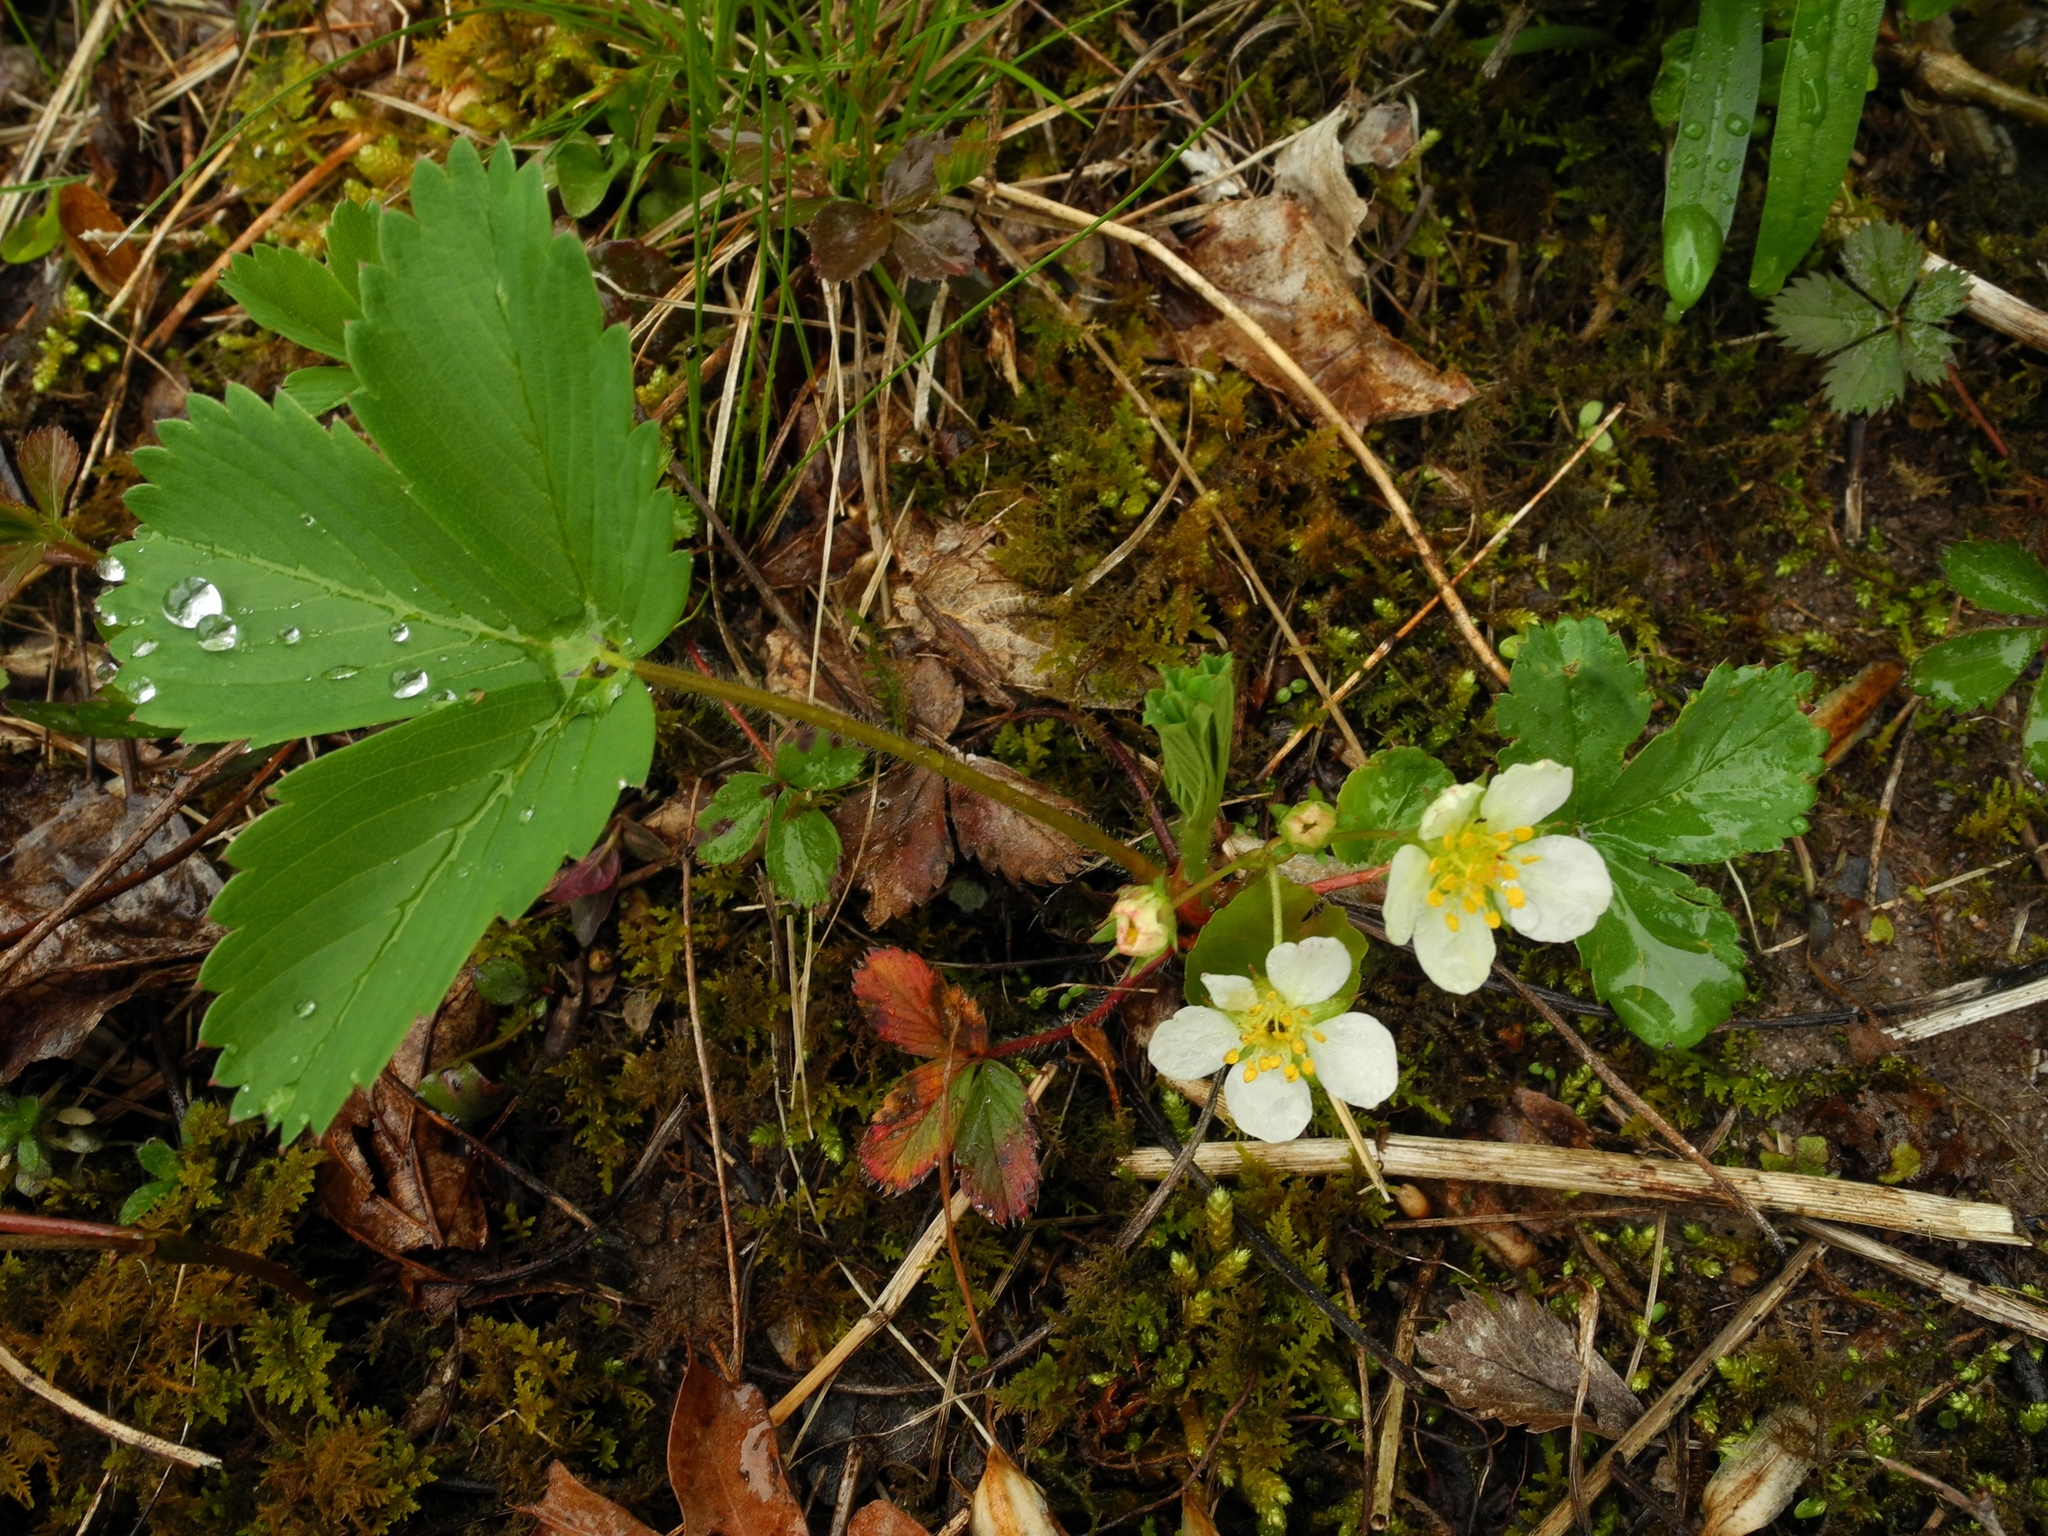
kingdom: Plantae
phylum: Tracheophyta
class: Magnoliopsida
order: Rosales
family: Rosaceae
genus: Fragaria
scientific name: Fragaria virginiana
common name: Thickleaved wild strawberry
